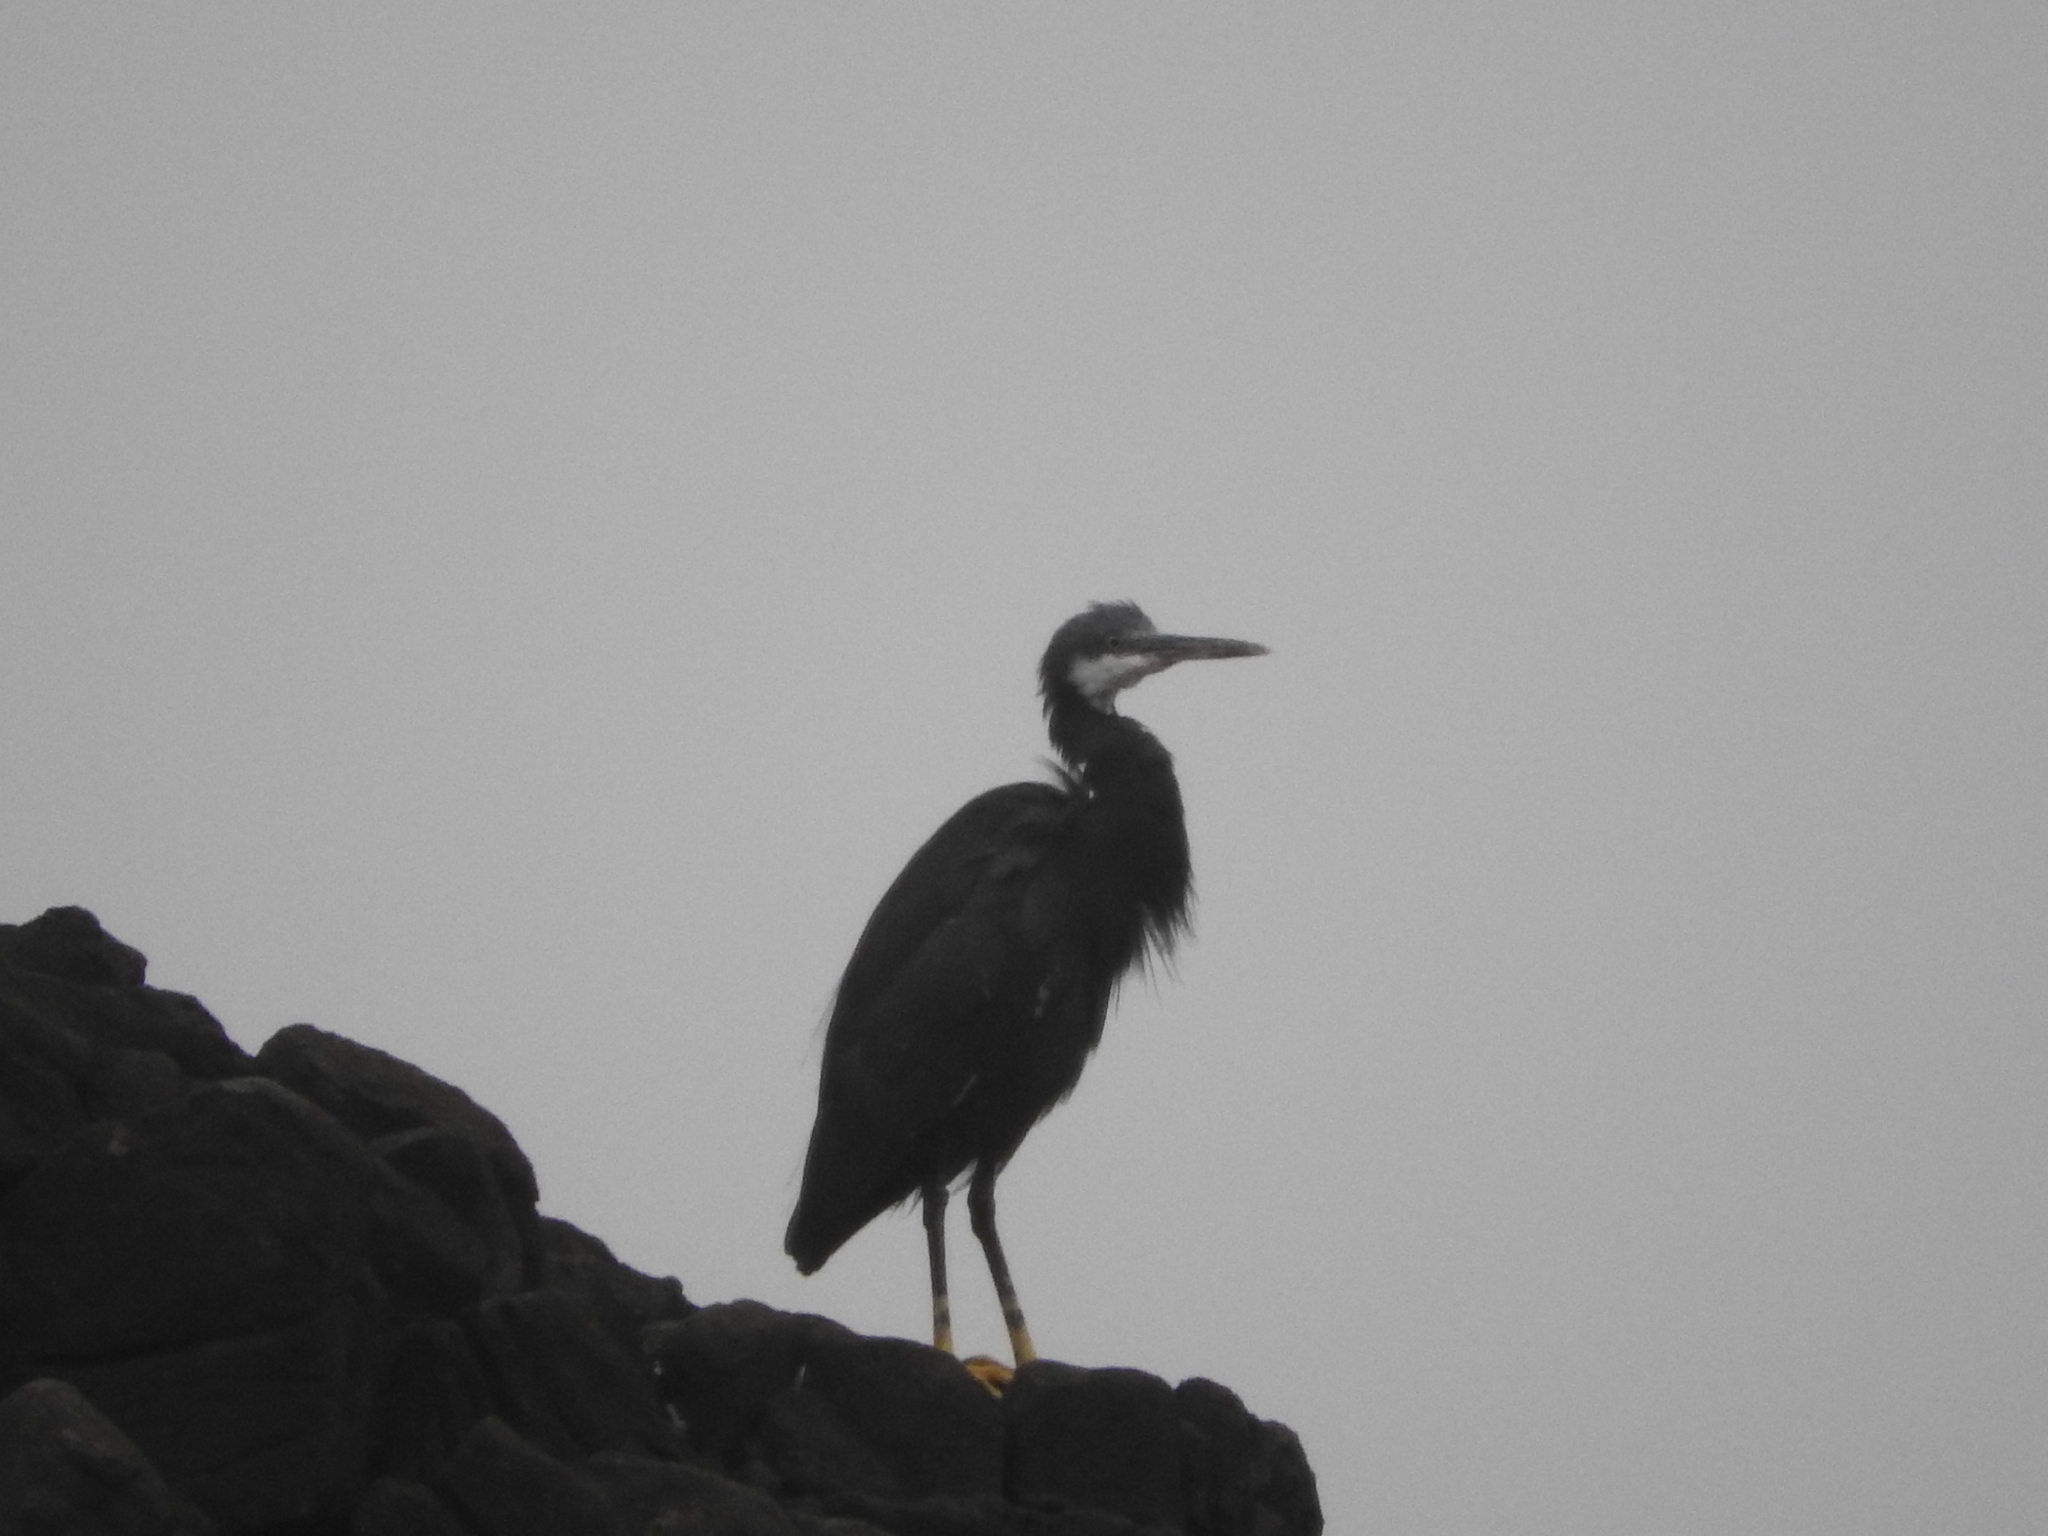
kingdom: Animalia
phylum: Chordata
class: Aves
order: Pelecaniformes
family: Ardeidae
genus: Egretta
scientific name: Egretta gularis
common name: Western reef-heron
